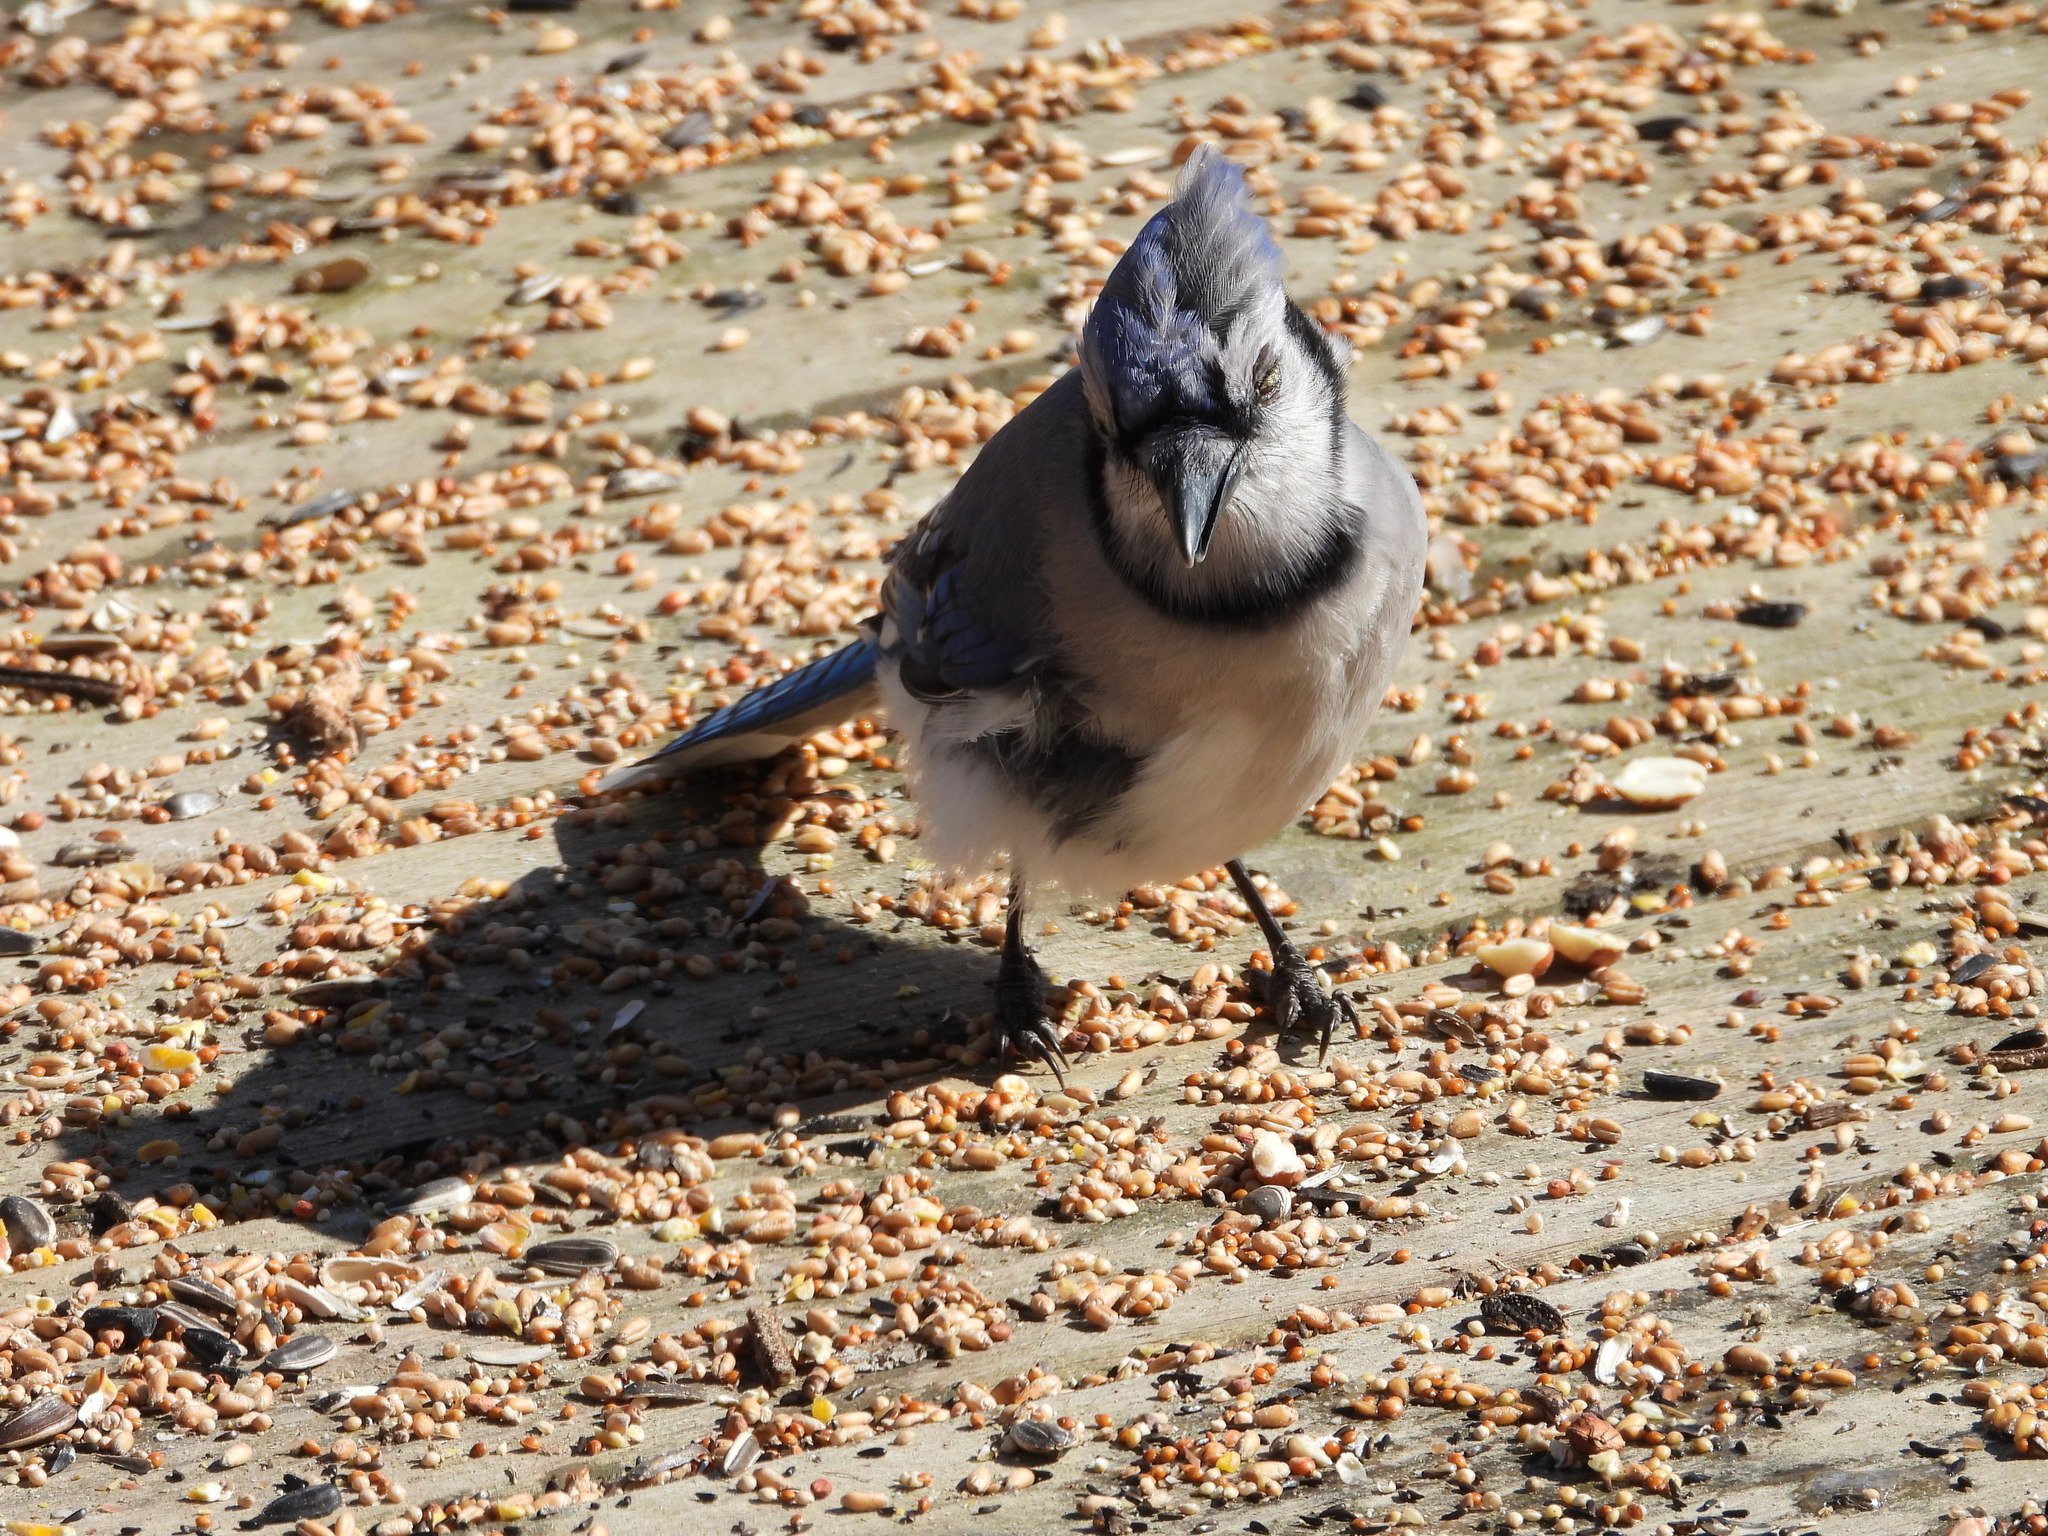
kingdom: Animalia
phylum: Chordata
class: Aves
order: Passeriformes
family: Corvidae
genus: Cyanocitta
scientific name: Cyanocitta cristata
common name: Blue jay
